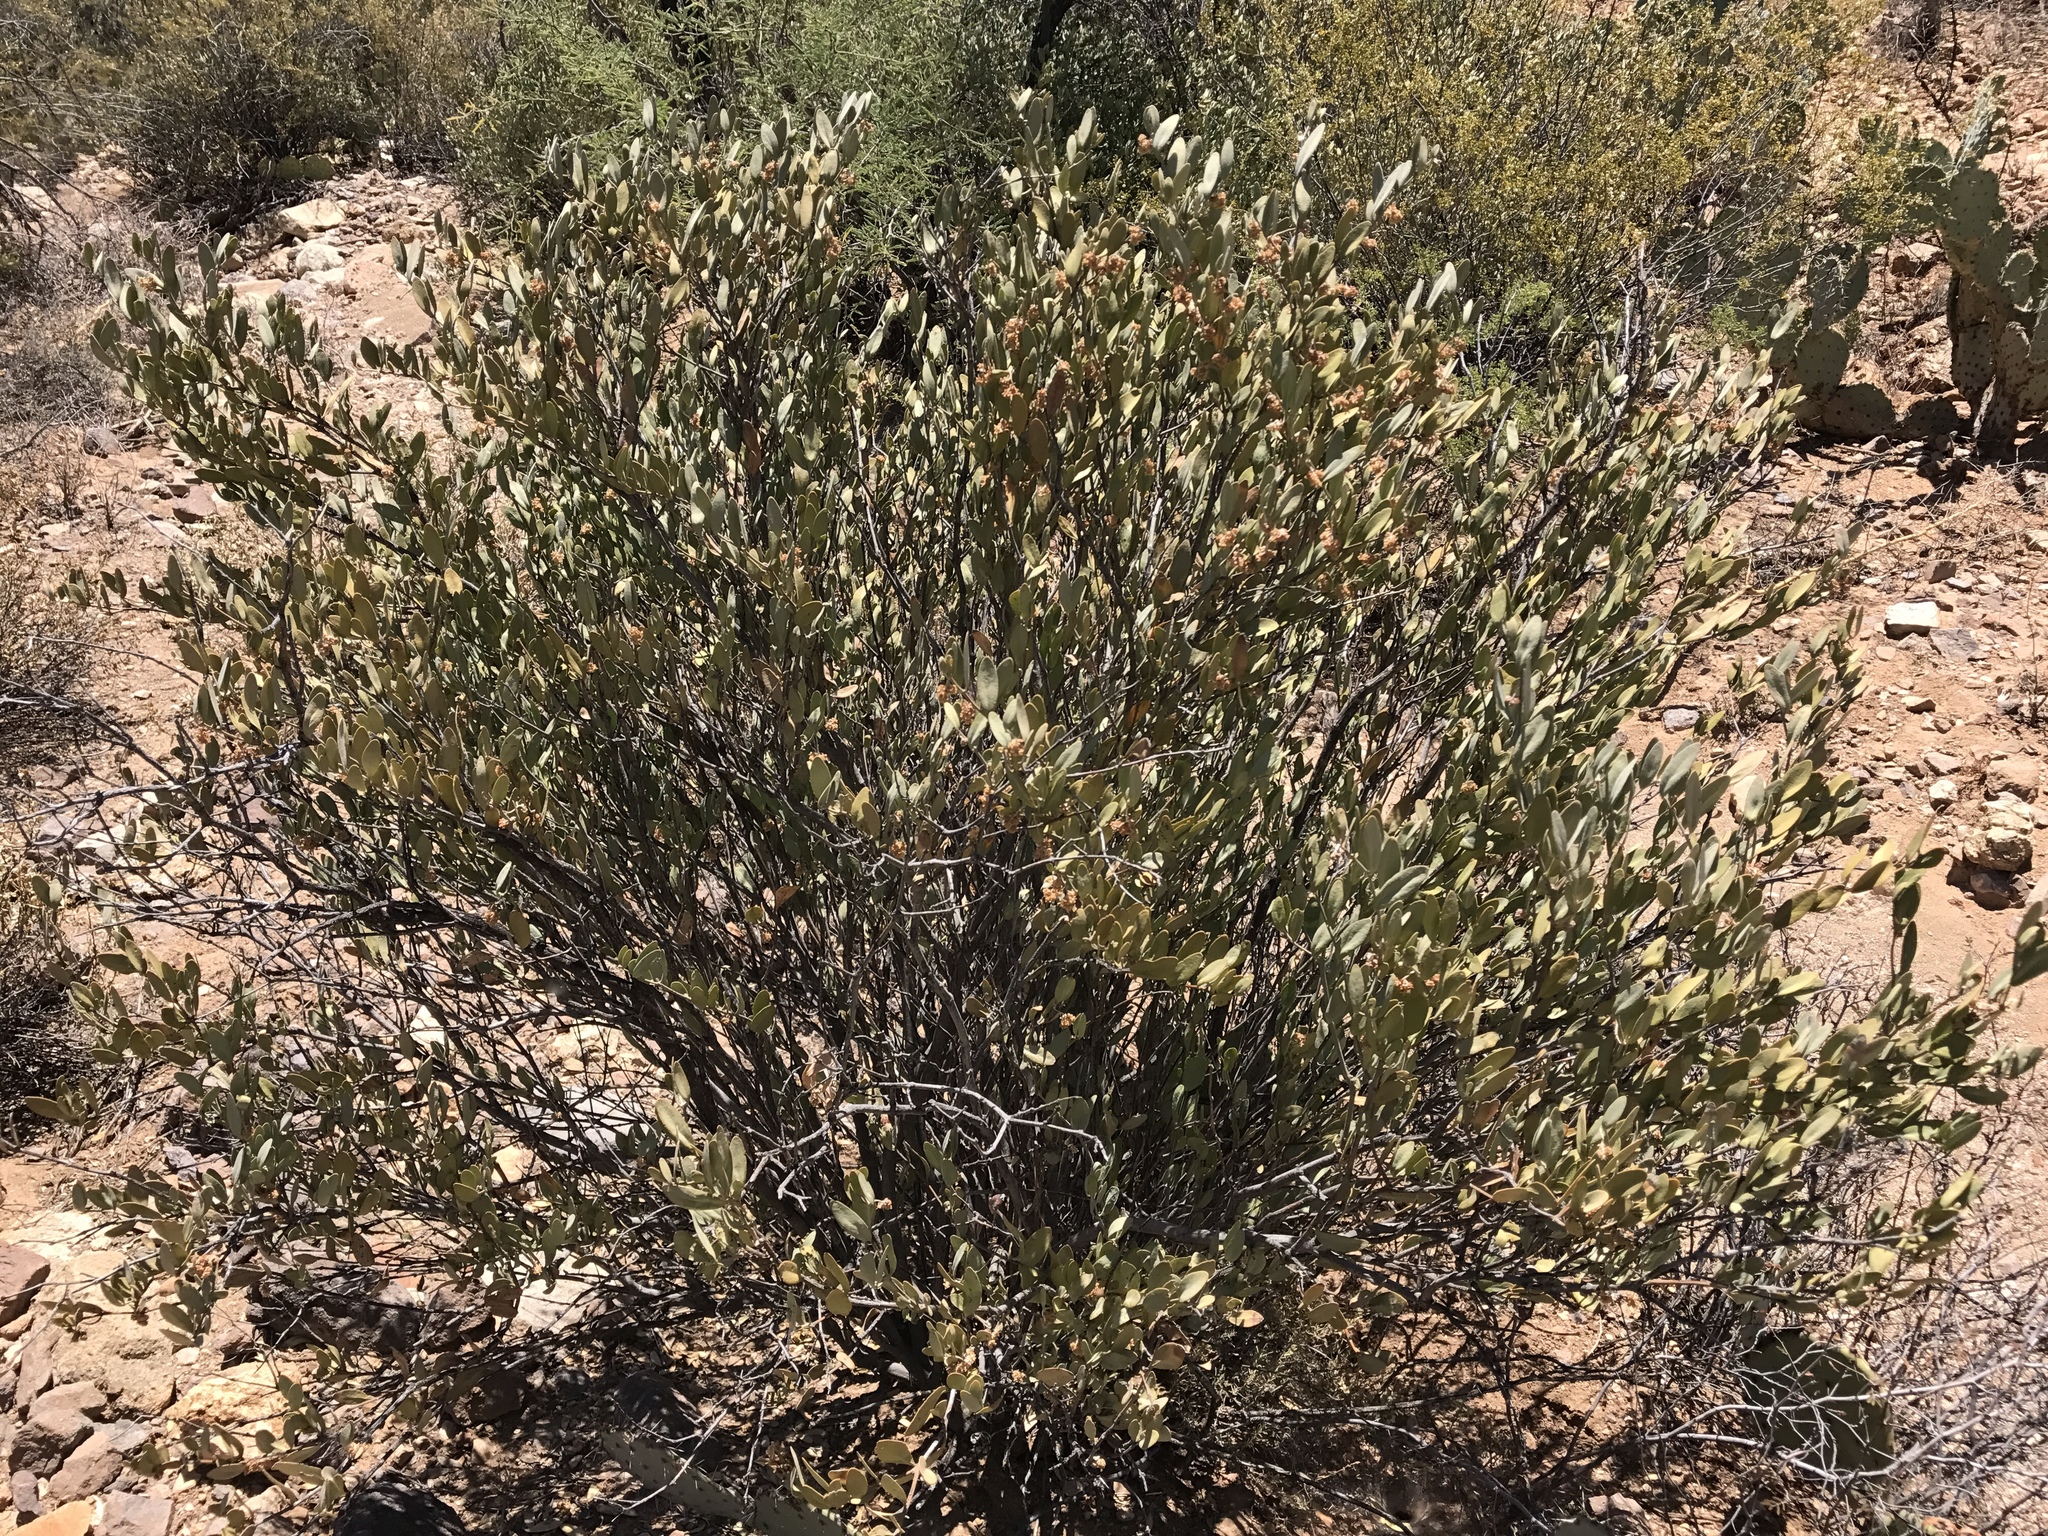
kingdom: Plantae
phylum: Tracheophyta
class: Magnoliopsida
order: Caryophyllales
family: Simmondsiaceae
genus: Simmondsia
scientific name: Simmondsia chinensis
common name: Jojoba
